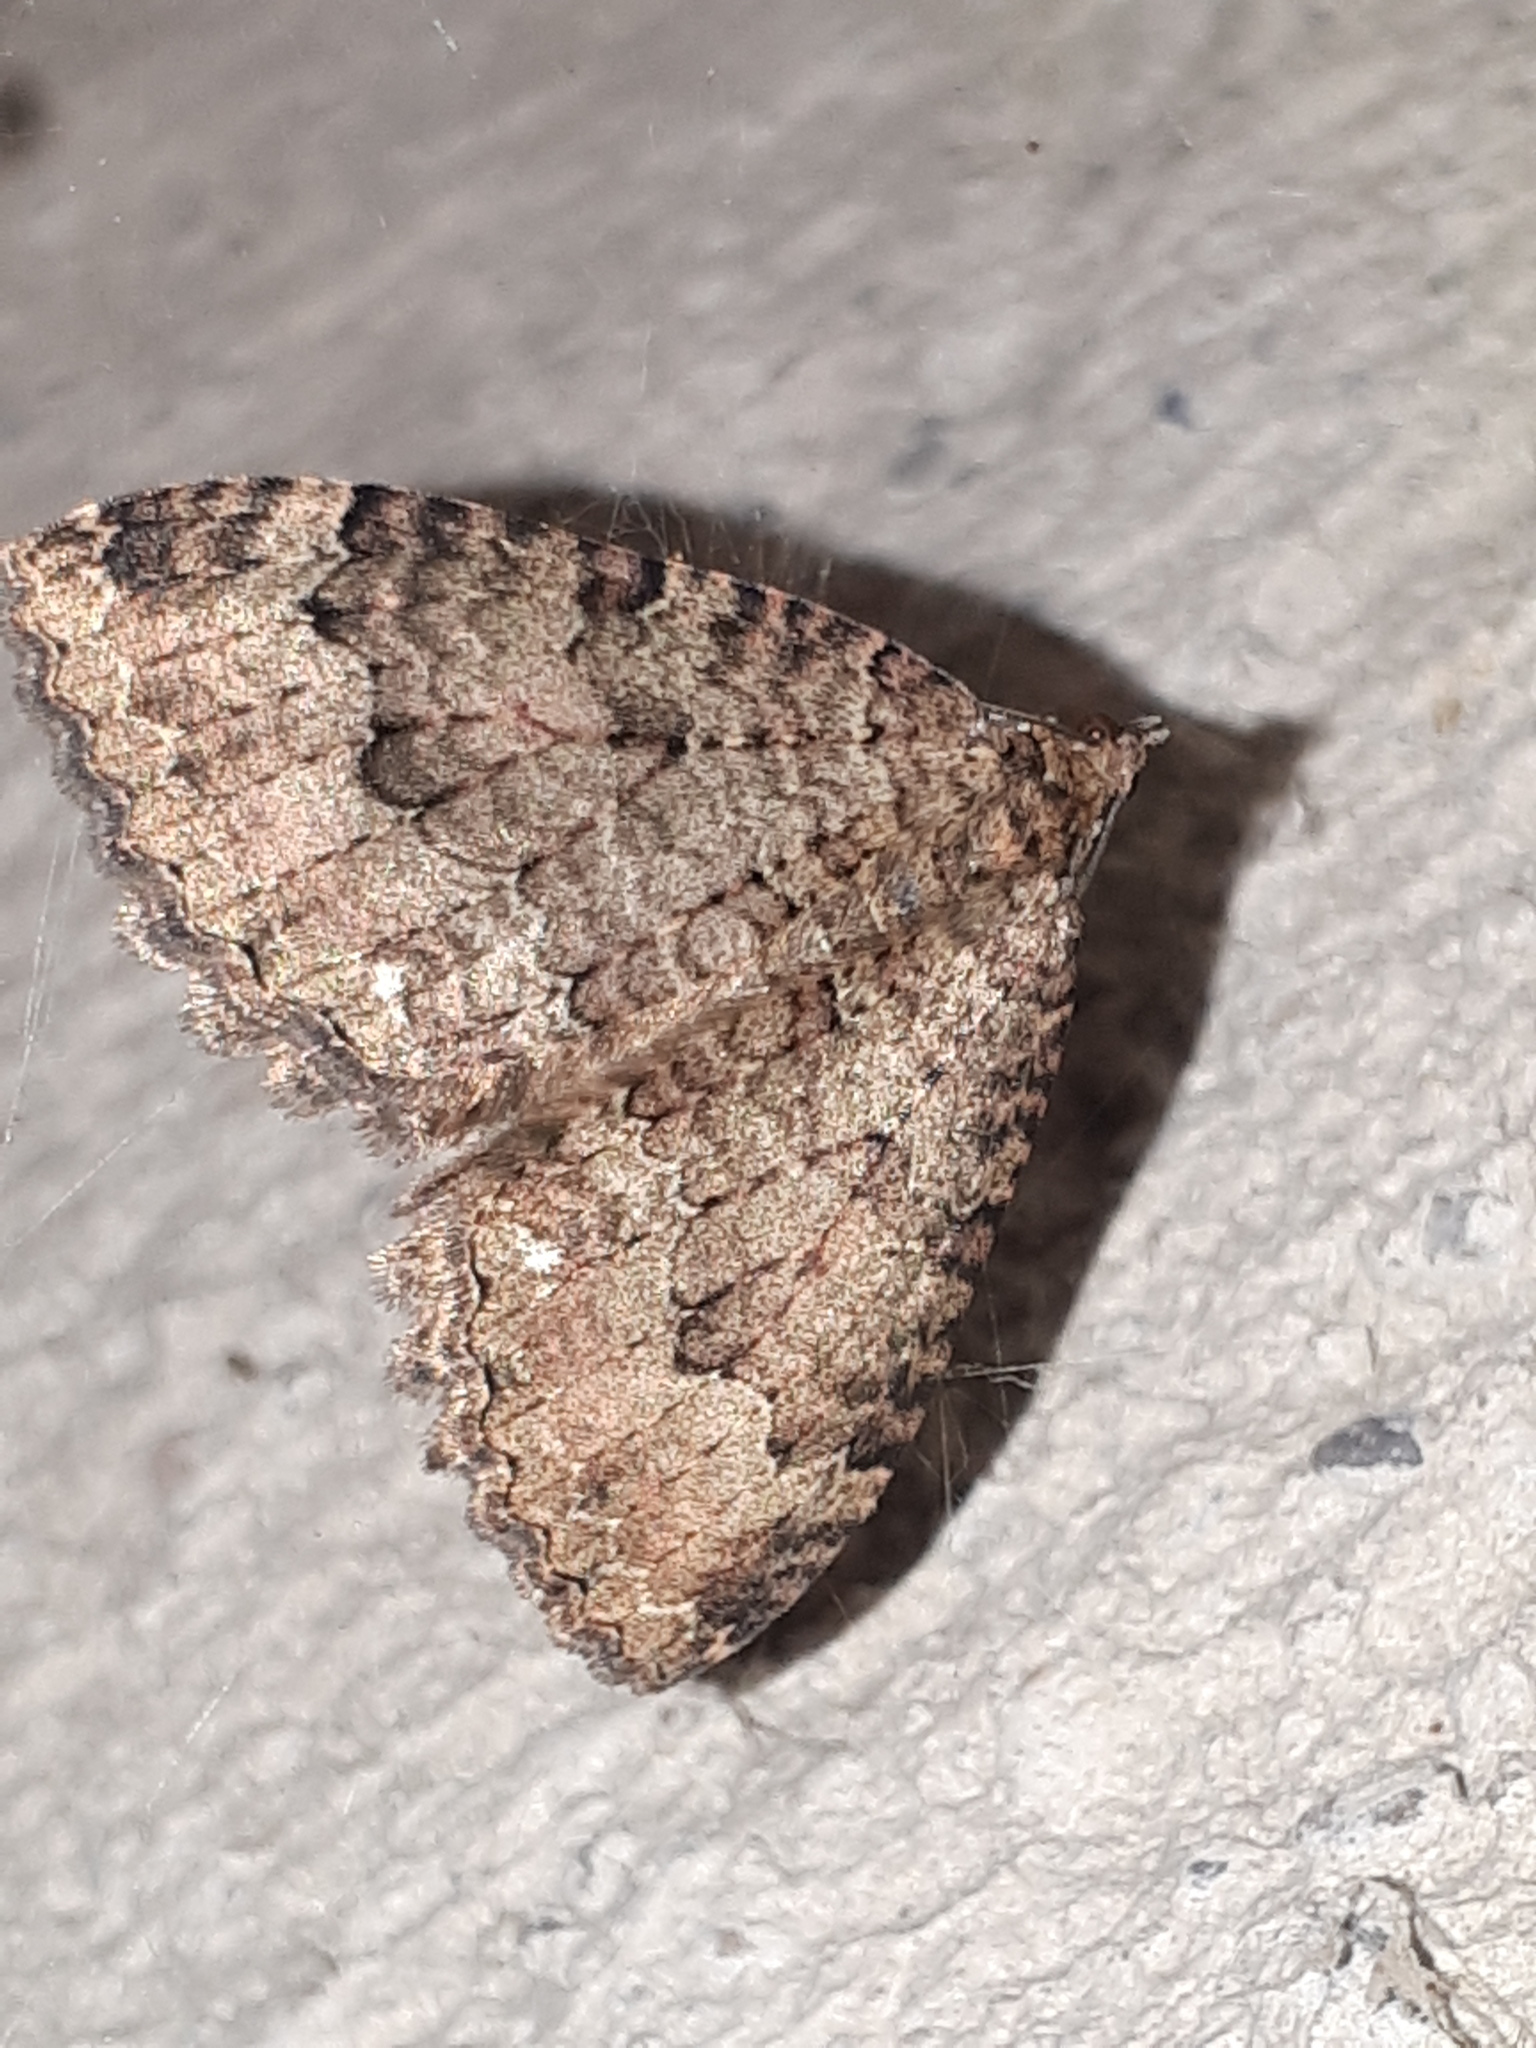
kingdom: Animalia
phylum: Arthropoda
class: Insecta
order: Lepidoptera
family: Geometridae
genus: Triphosa
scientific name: Triphosa dubitata
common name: Tissue
